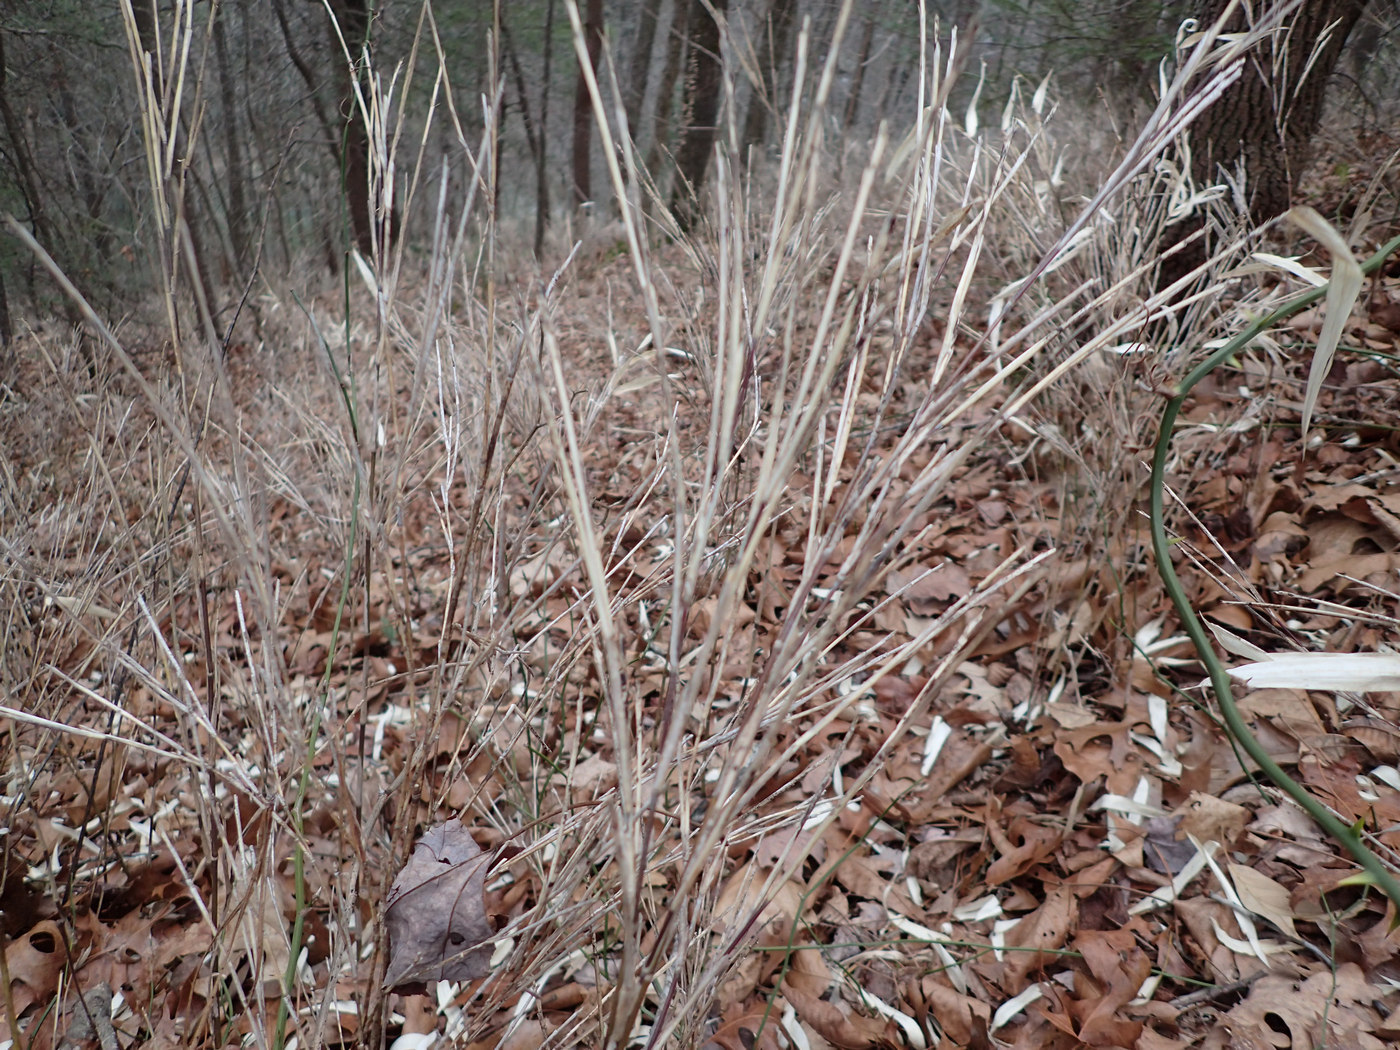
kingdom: Plantae
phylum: Tracheophyta
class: Liliopsida
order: Poales
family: Poaceae
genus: Arundinaria
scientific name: Arundinaria appalachiana
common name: Hill cane
